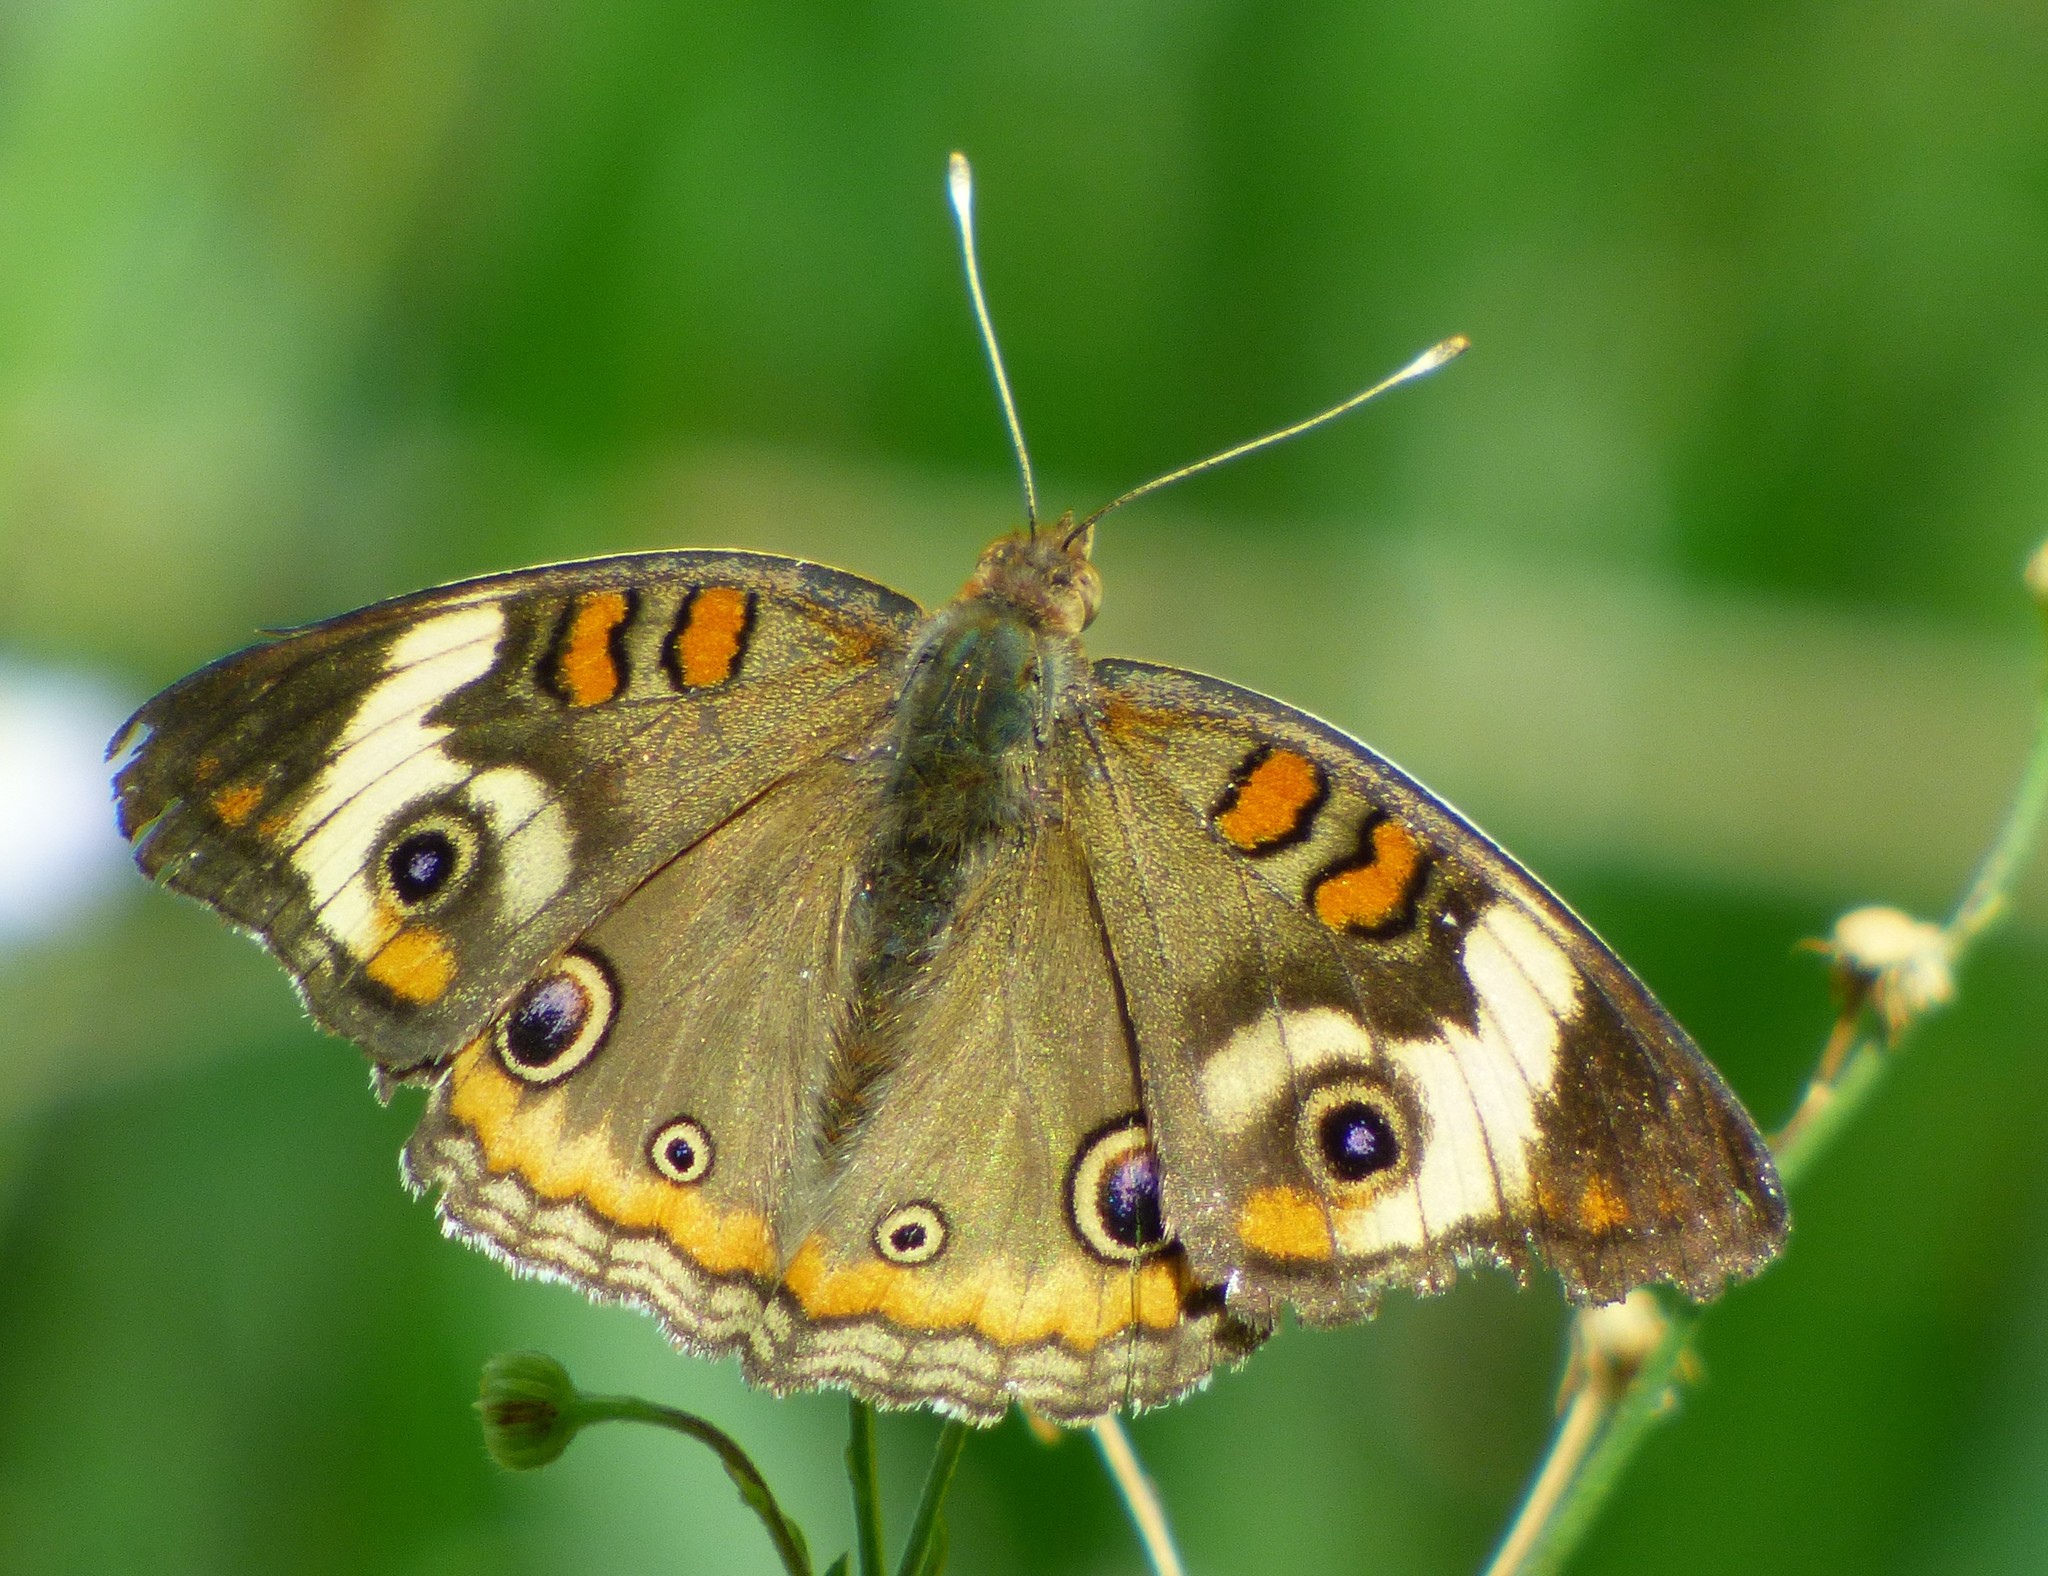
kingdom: Animalia
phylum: Arthropoda
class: Insecta
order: Lepidoptera
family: Nymphalidae
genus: Junonia
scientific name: Junonia coenia
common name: Common buckeye
